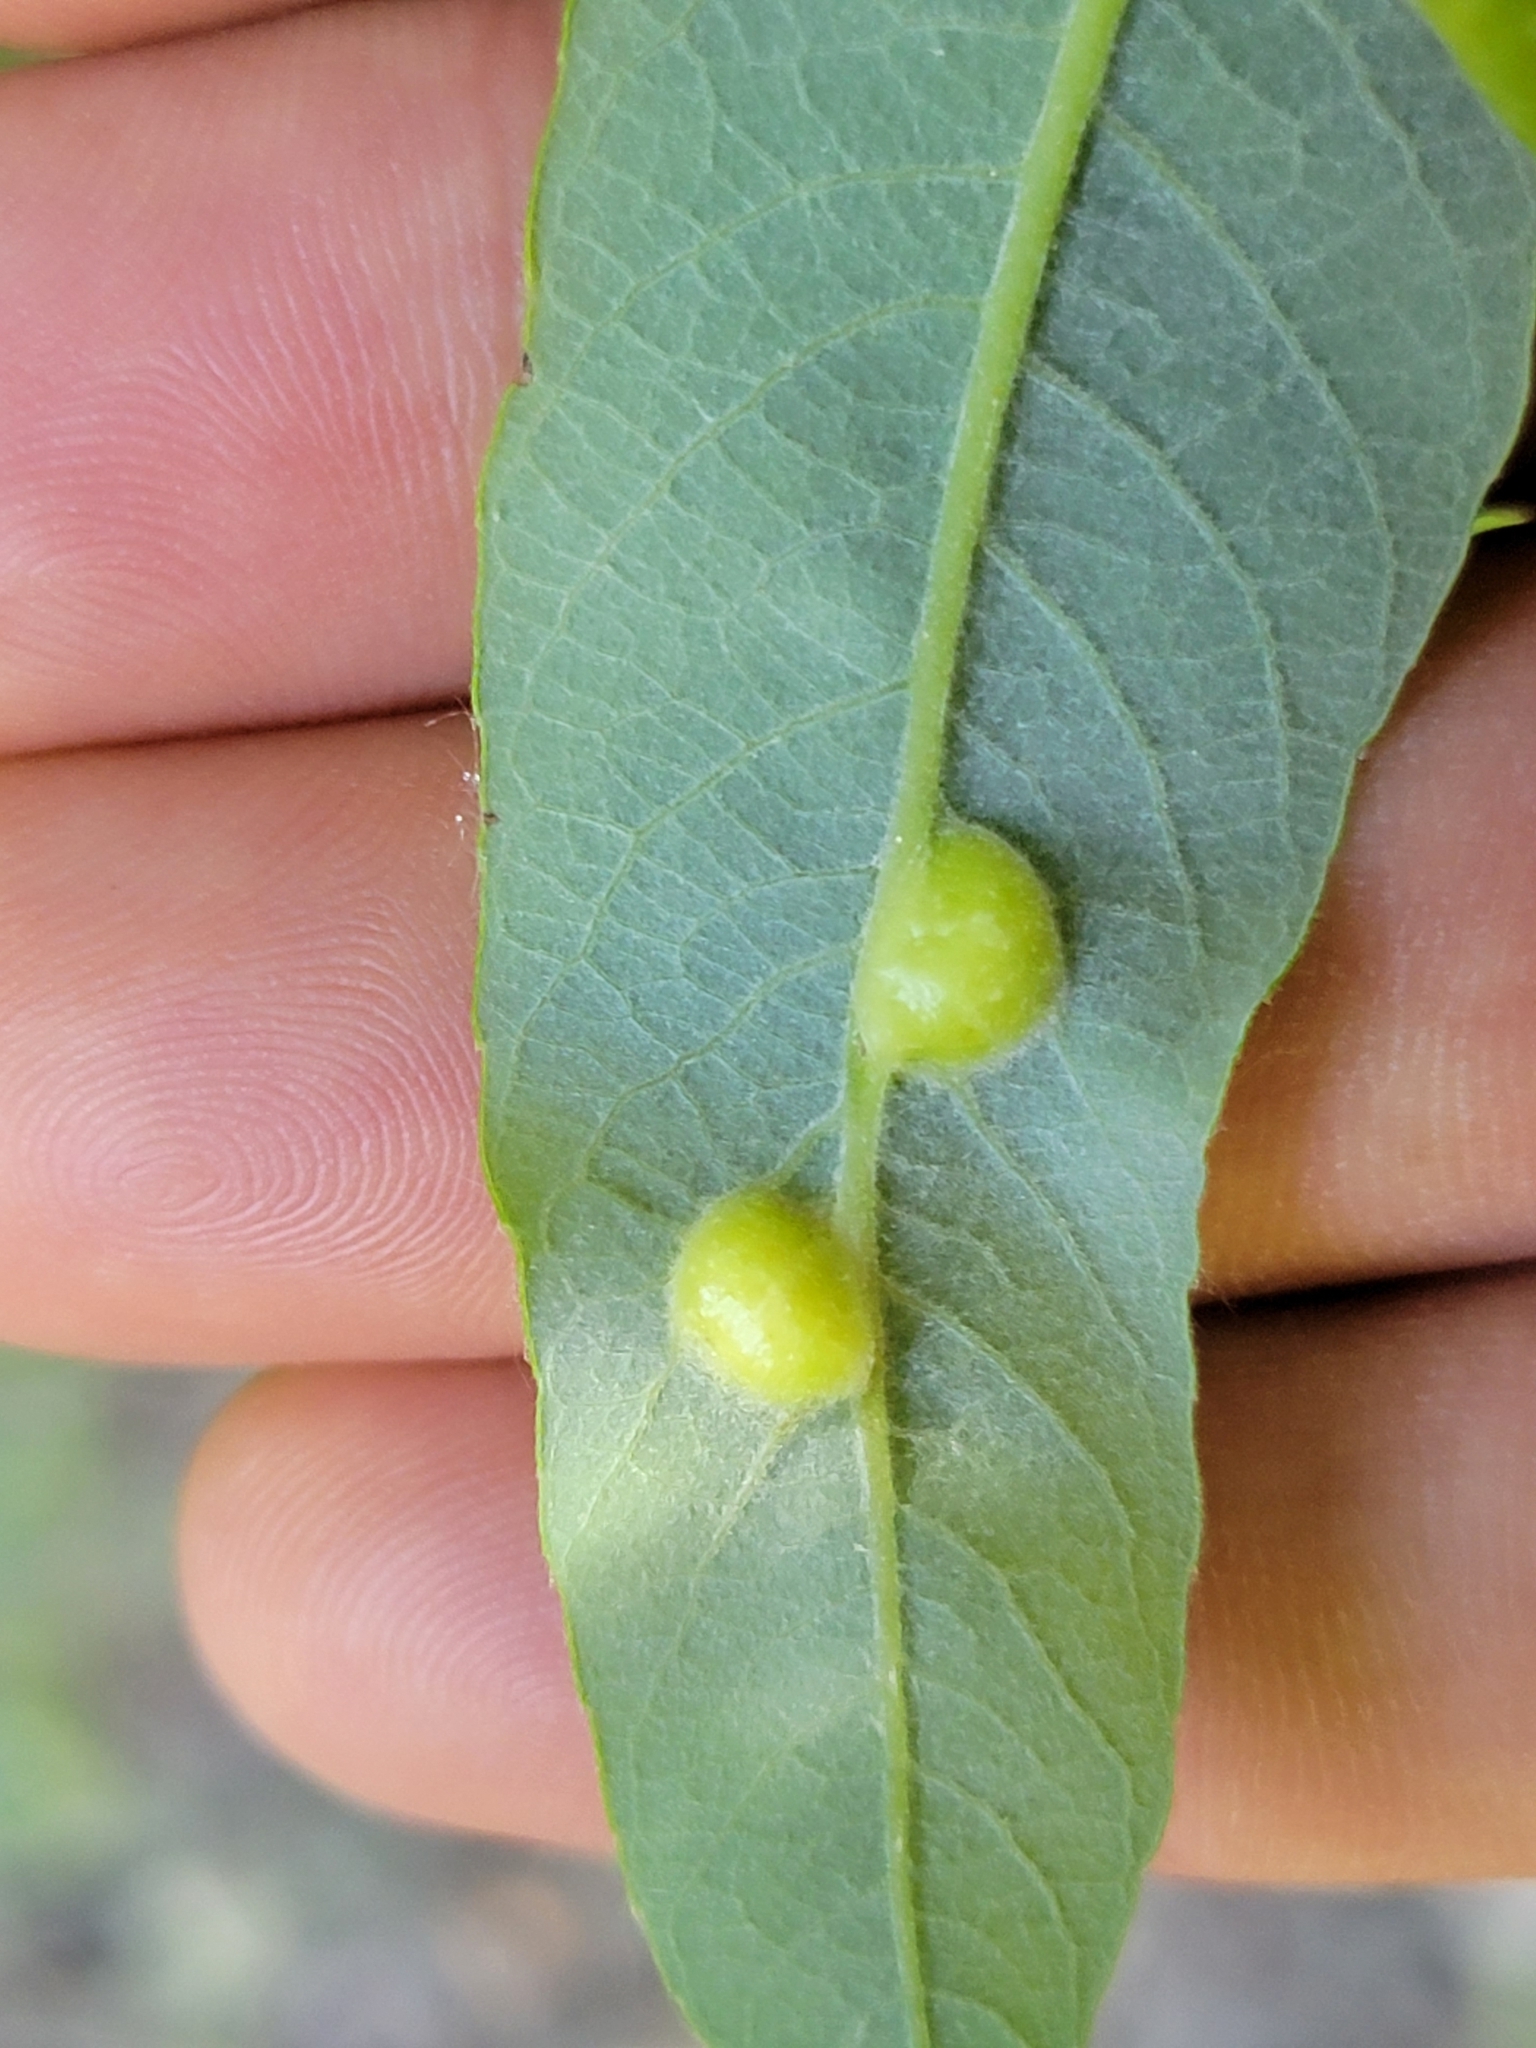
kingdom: Animalia
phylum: Arthropoda
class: Insecta
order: Hymenoptera
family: Tenthredinidae
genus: Euura
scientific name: Euura
